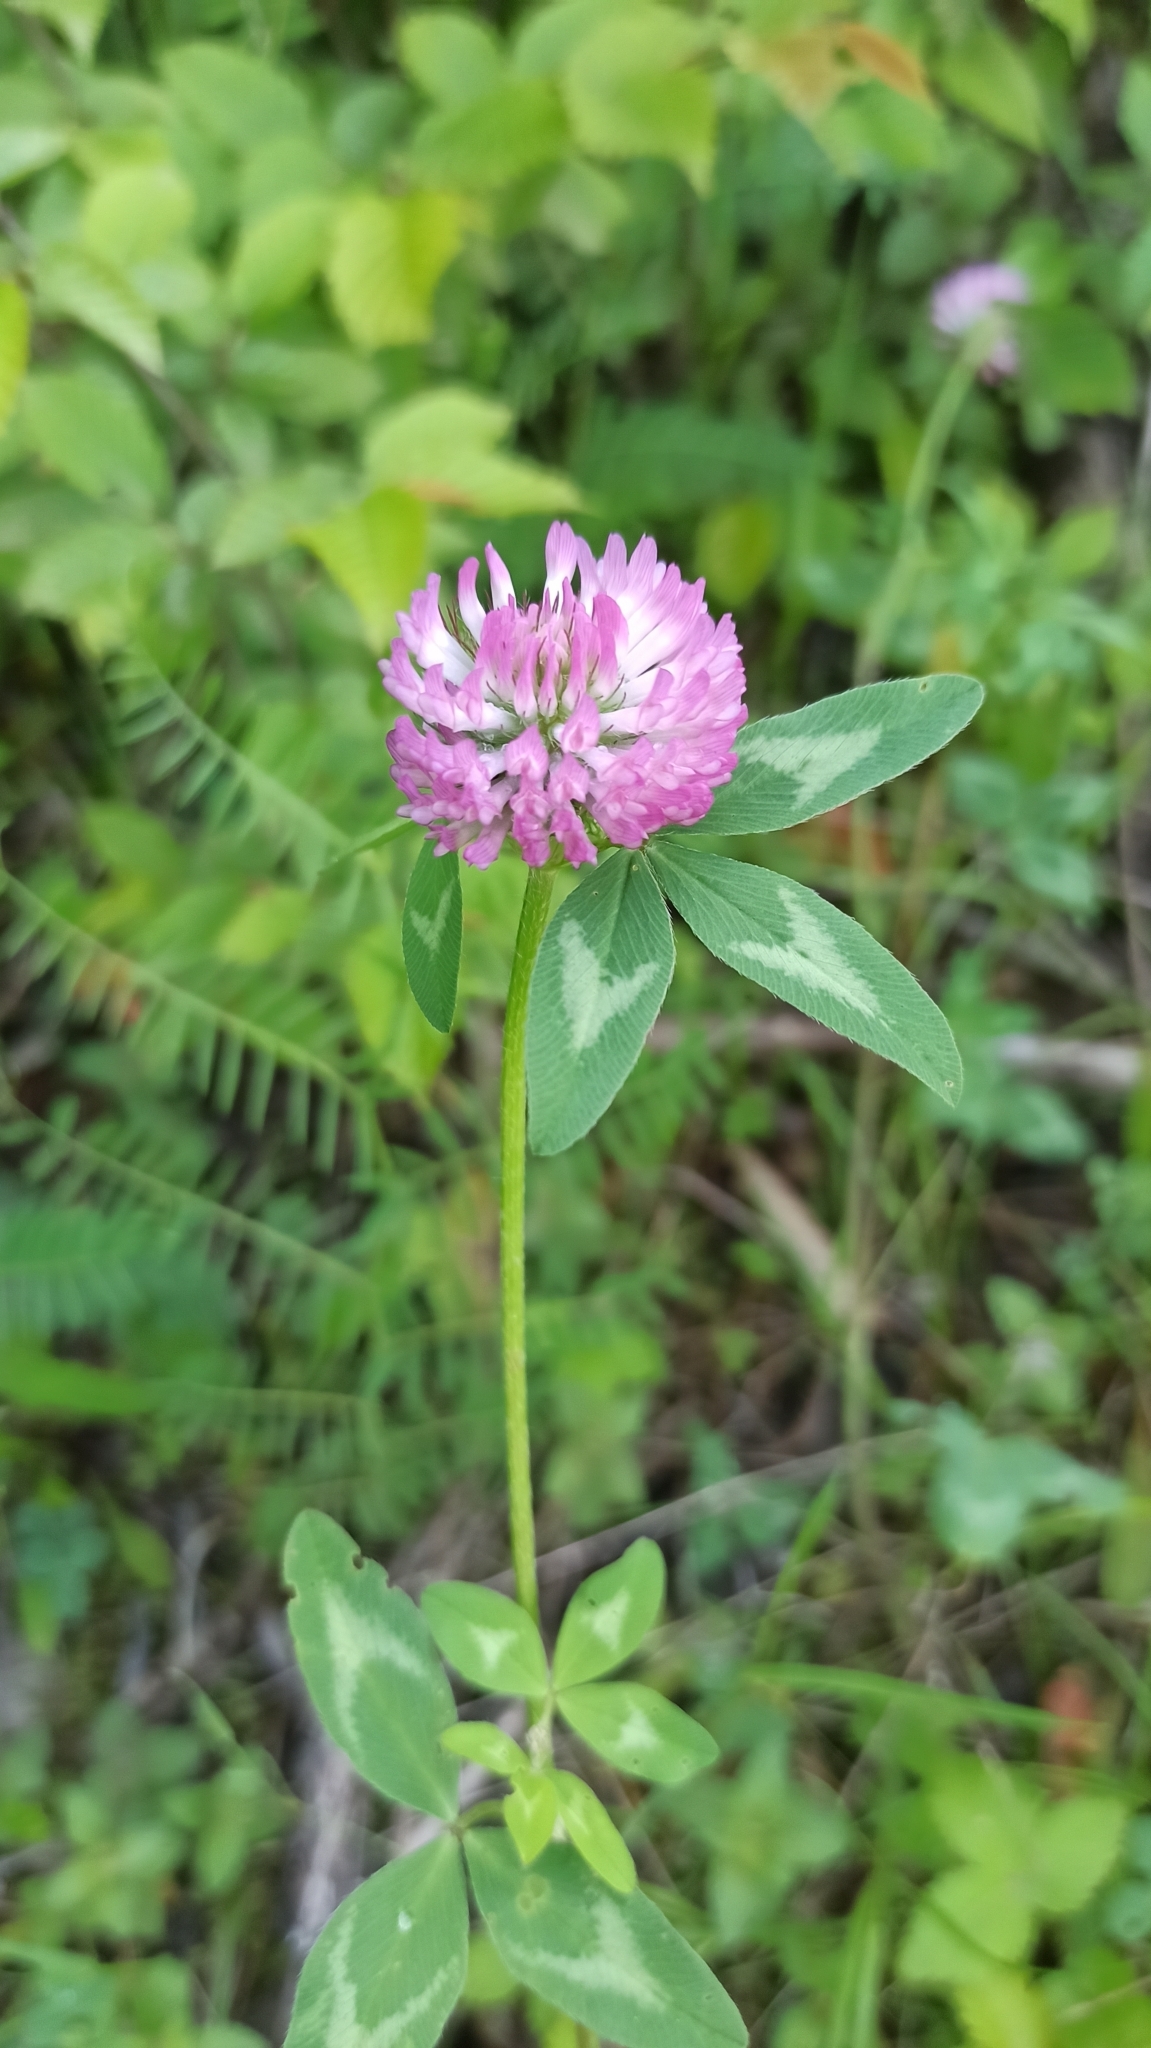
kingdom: Plantae
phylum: Tracheophyta
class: Magnoliopsida
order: Fabales
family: Fabaceae
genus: Trifolium
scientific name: Trifolium pratense
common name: Red clover
